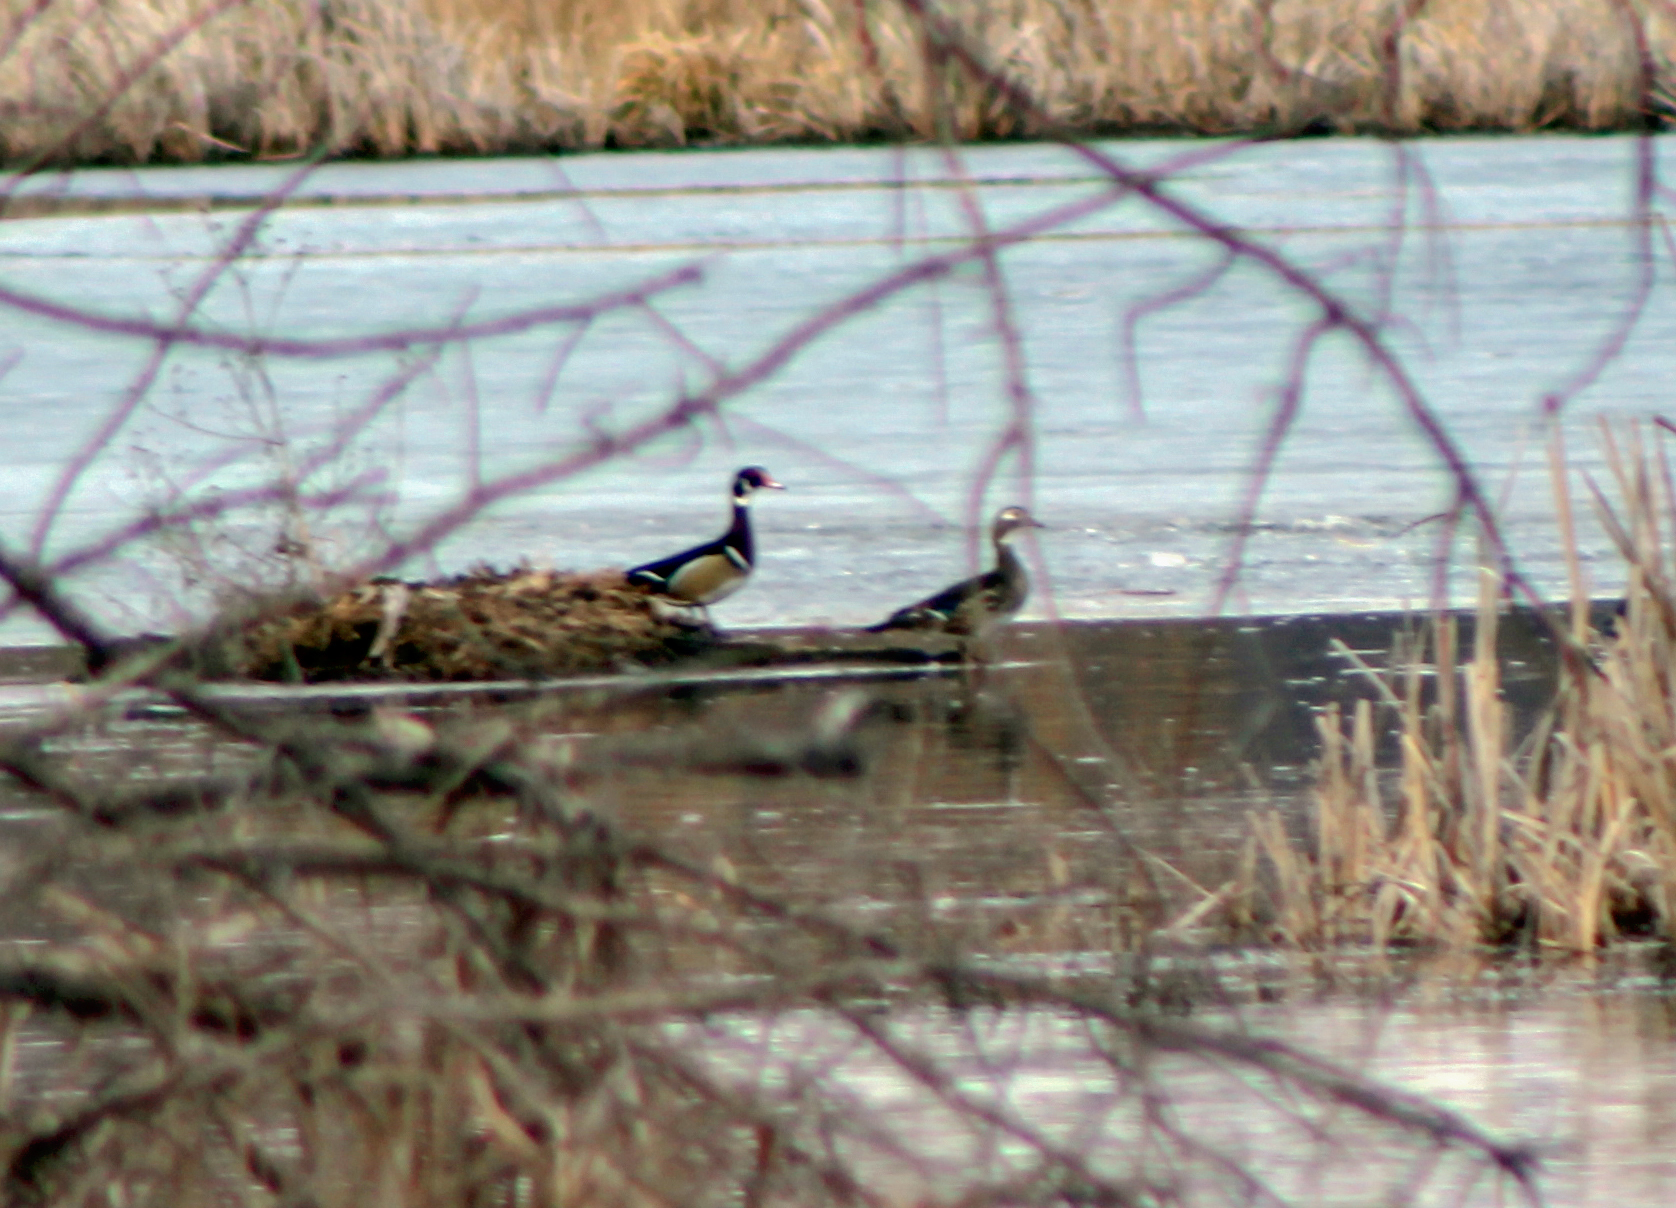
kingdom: Animalia
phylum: Chordata
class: Aves
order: Anseriformes
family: Anatidae
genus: Aix
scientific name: Aix sponsa
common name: Wood duck
